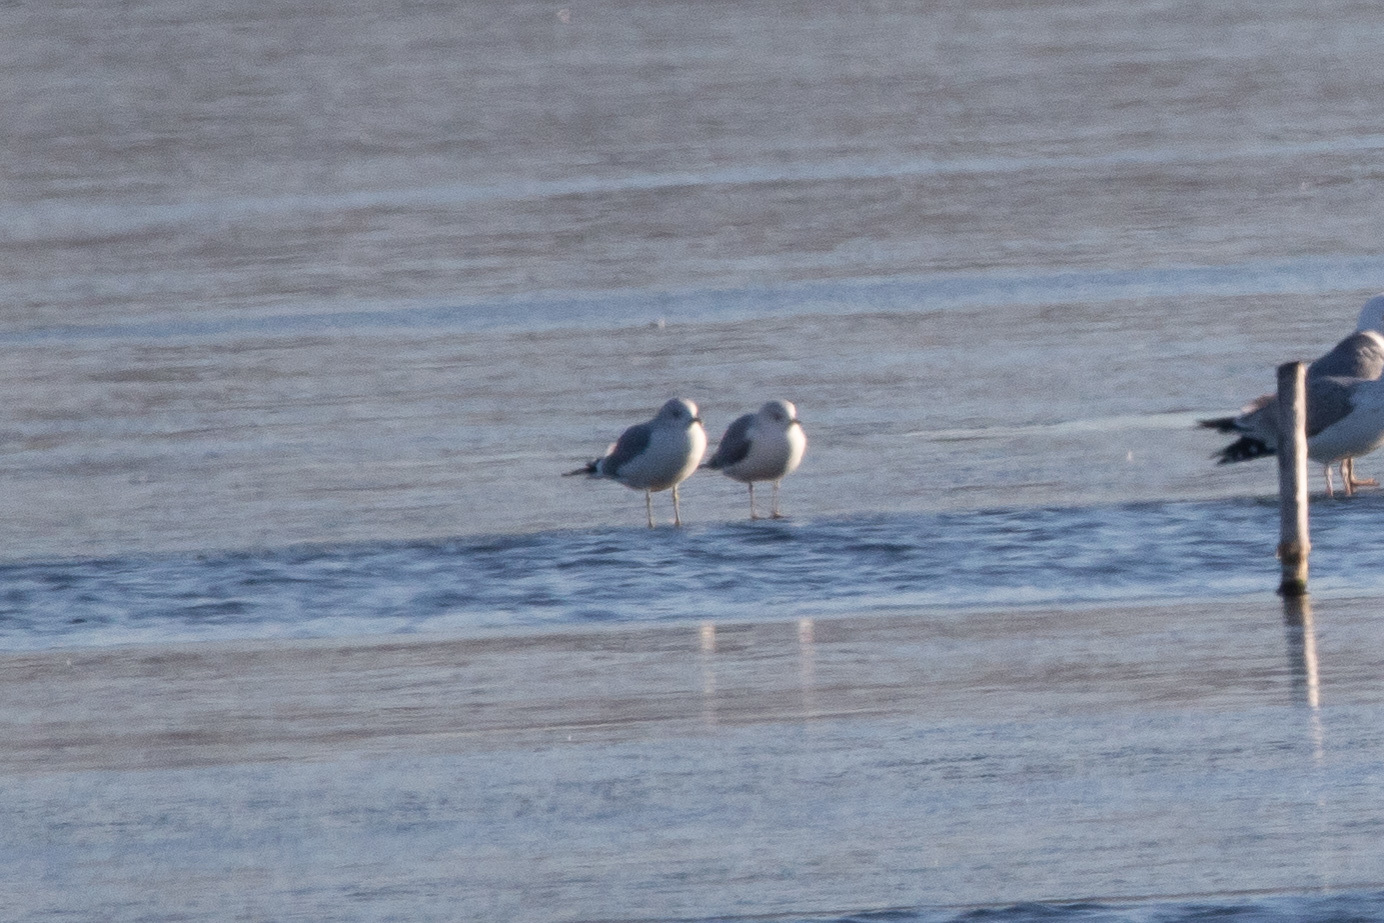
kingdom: Animalia
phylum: Chordata
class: Aves
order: Charadriiformes
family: Laridae
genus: Larus
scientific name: Larus canus
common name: Mew gull
